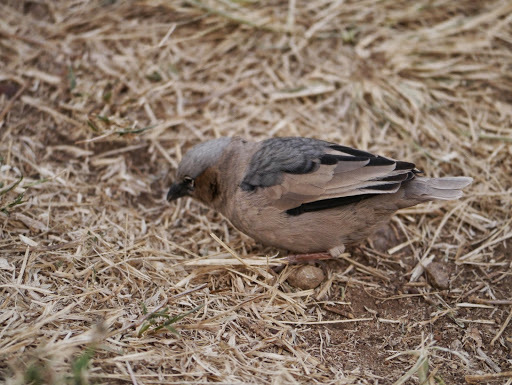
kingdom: Animalia
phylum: Chordata
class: Aves
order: Passeriformes
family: Passeridae
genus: Pseudonigrita
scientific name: Pseudonigrita arnaudi
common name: Grey-capped social weaver
